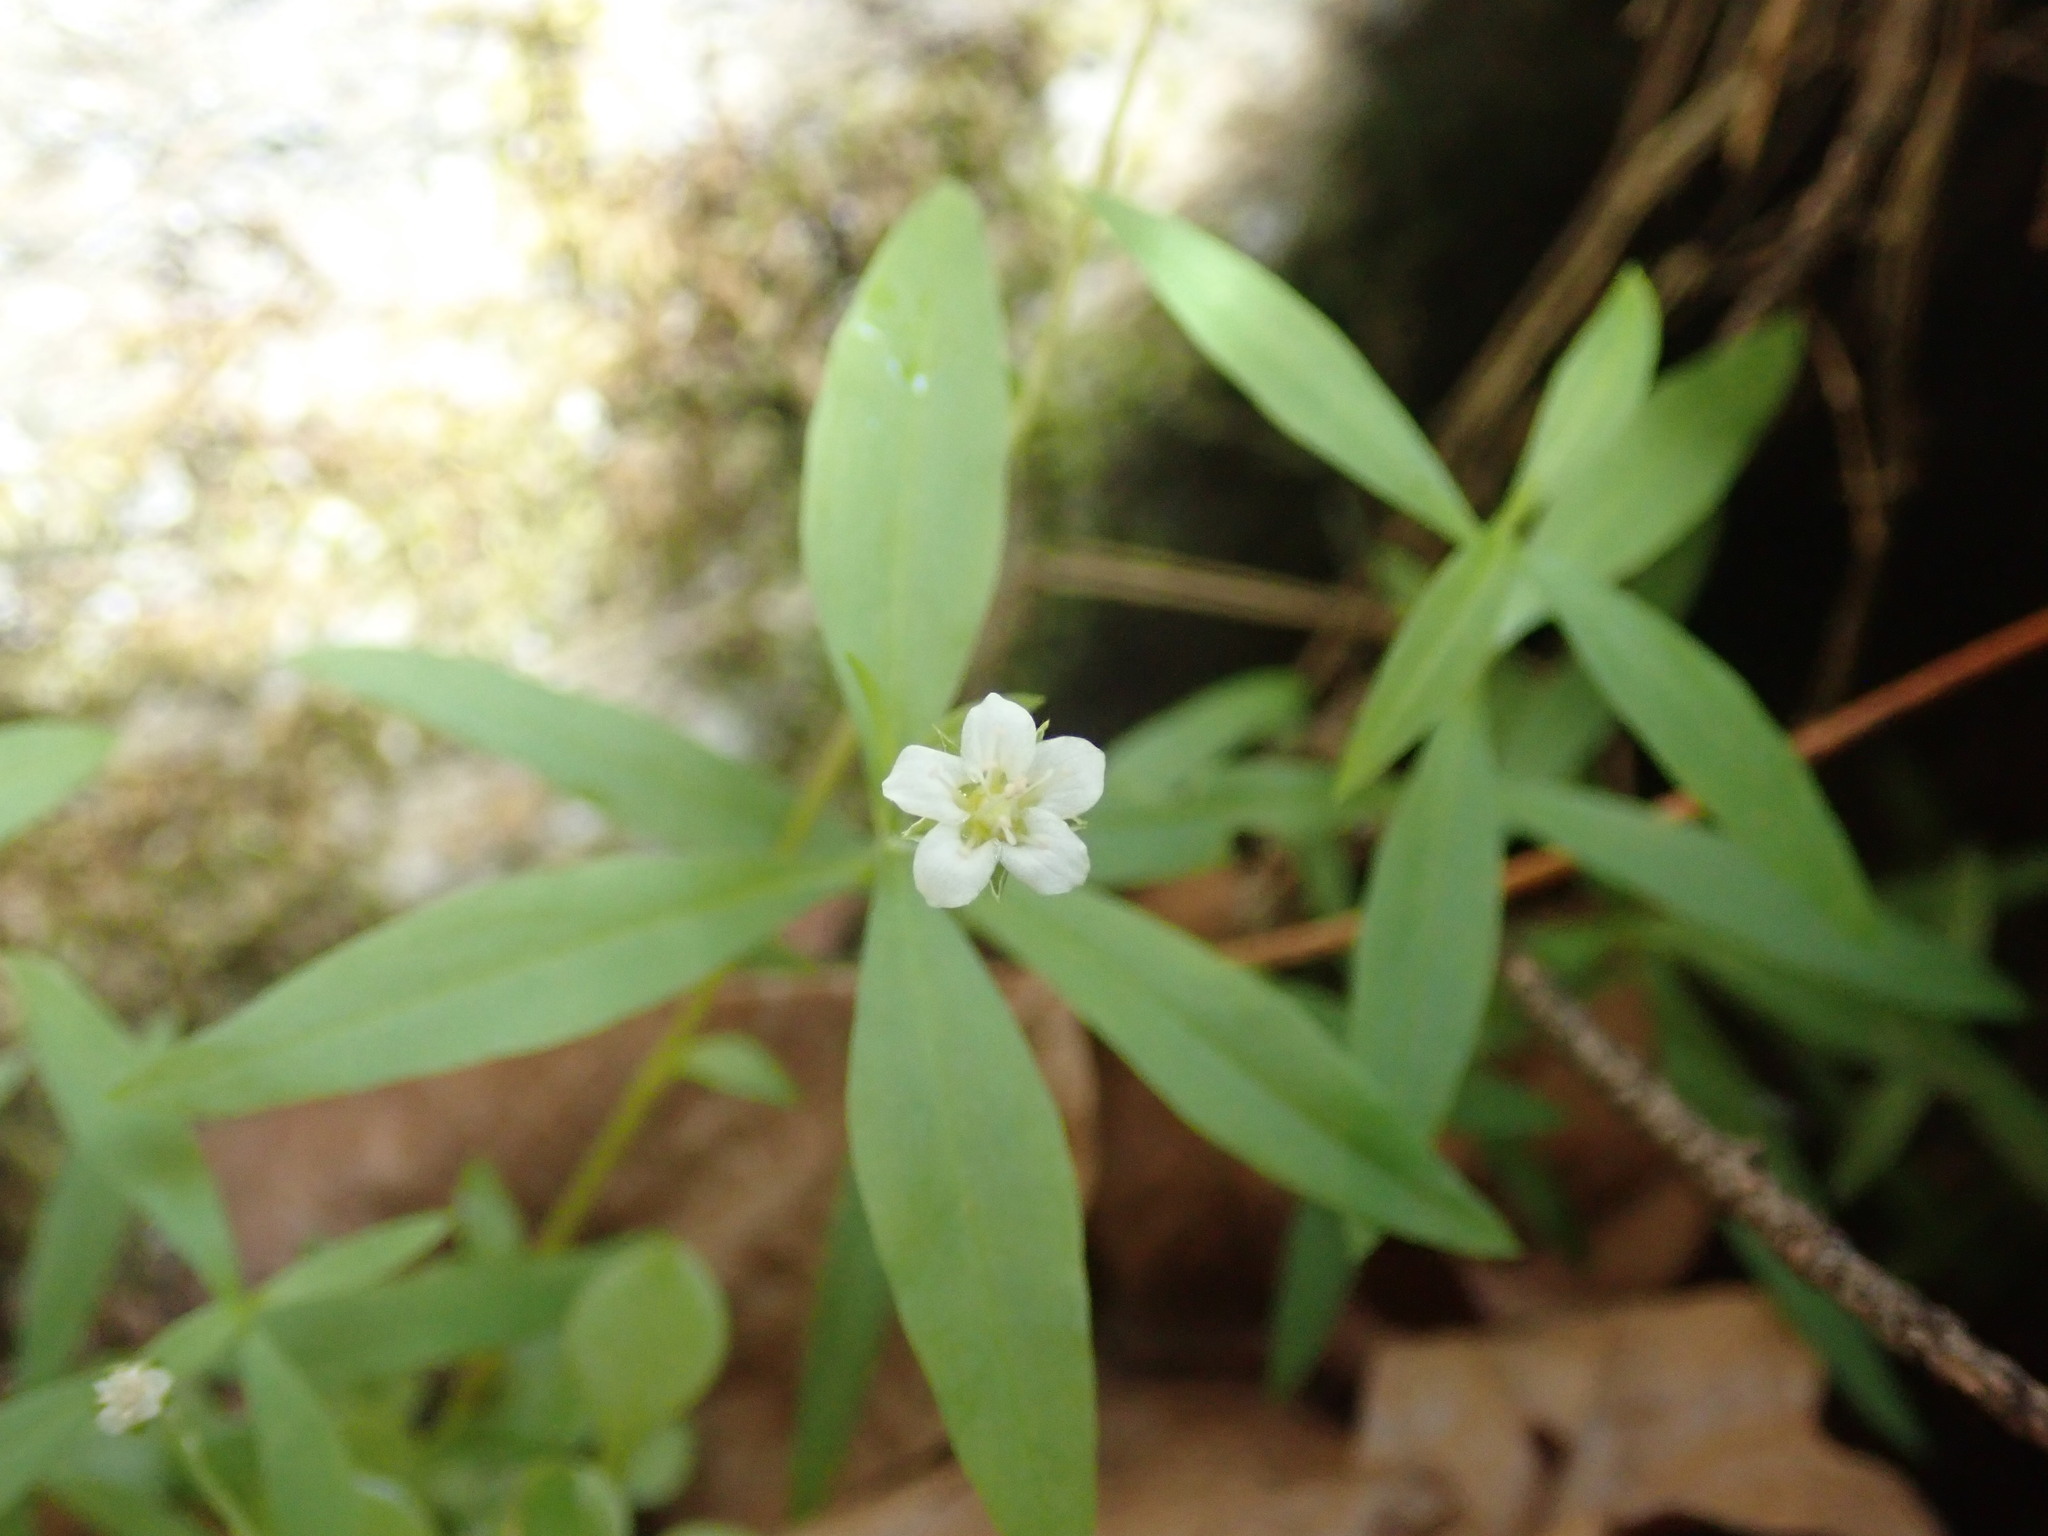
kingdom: Plantae
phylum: Tracheophyta
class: Magnoliopsida
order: Caryophyllales
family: Caryophyllaceae
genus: Moehringia
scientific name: Moehringia macrophylla
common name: Big-leaf sandwort
